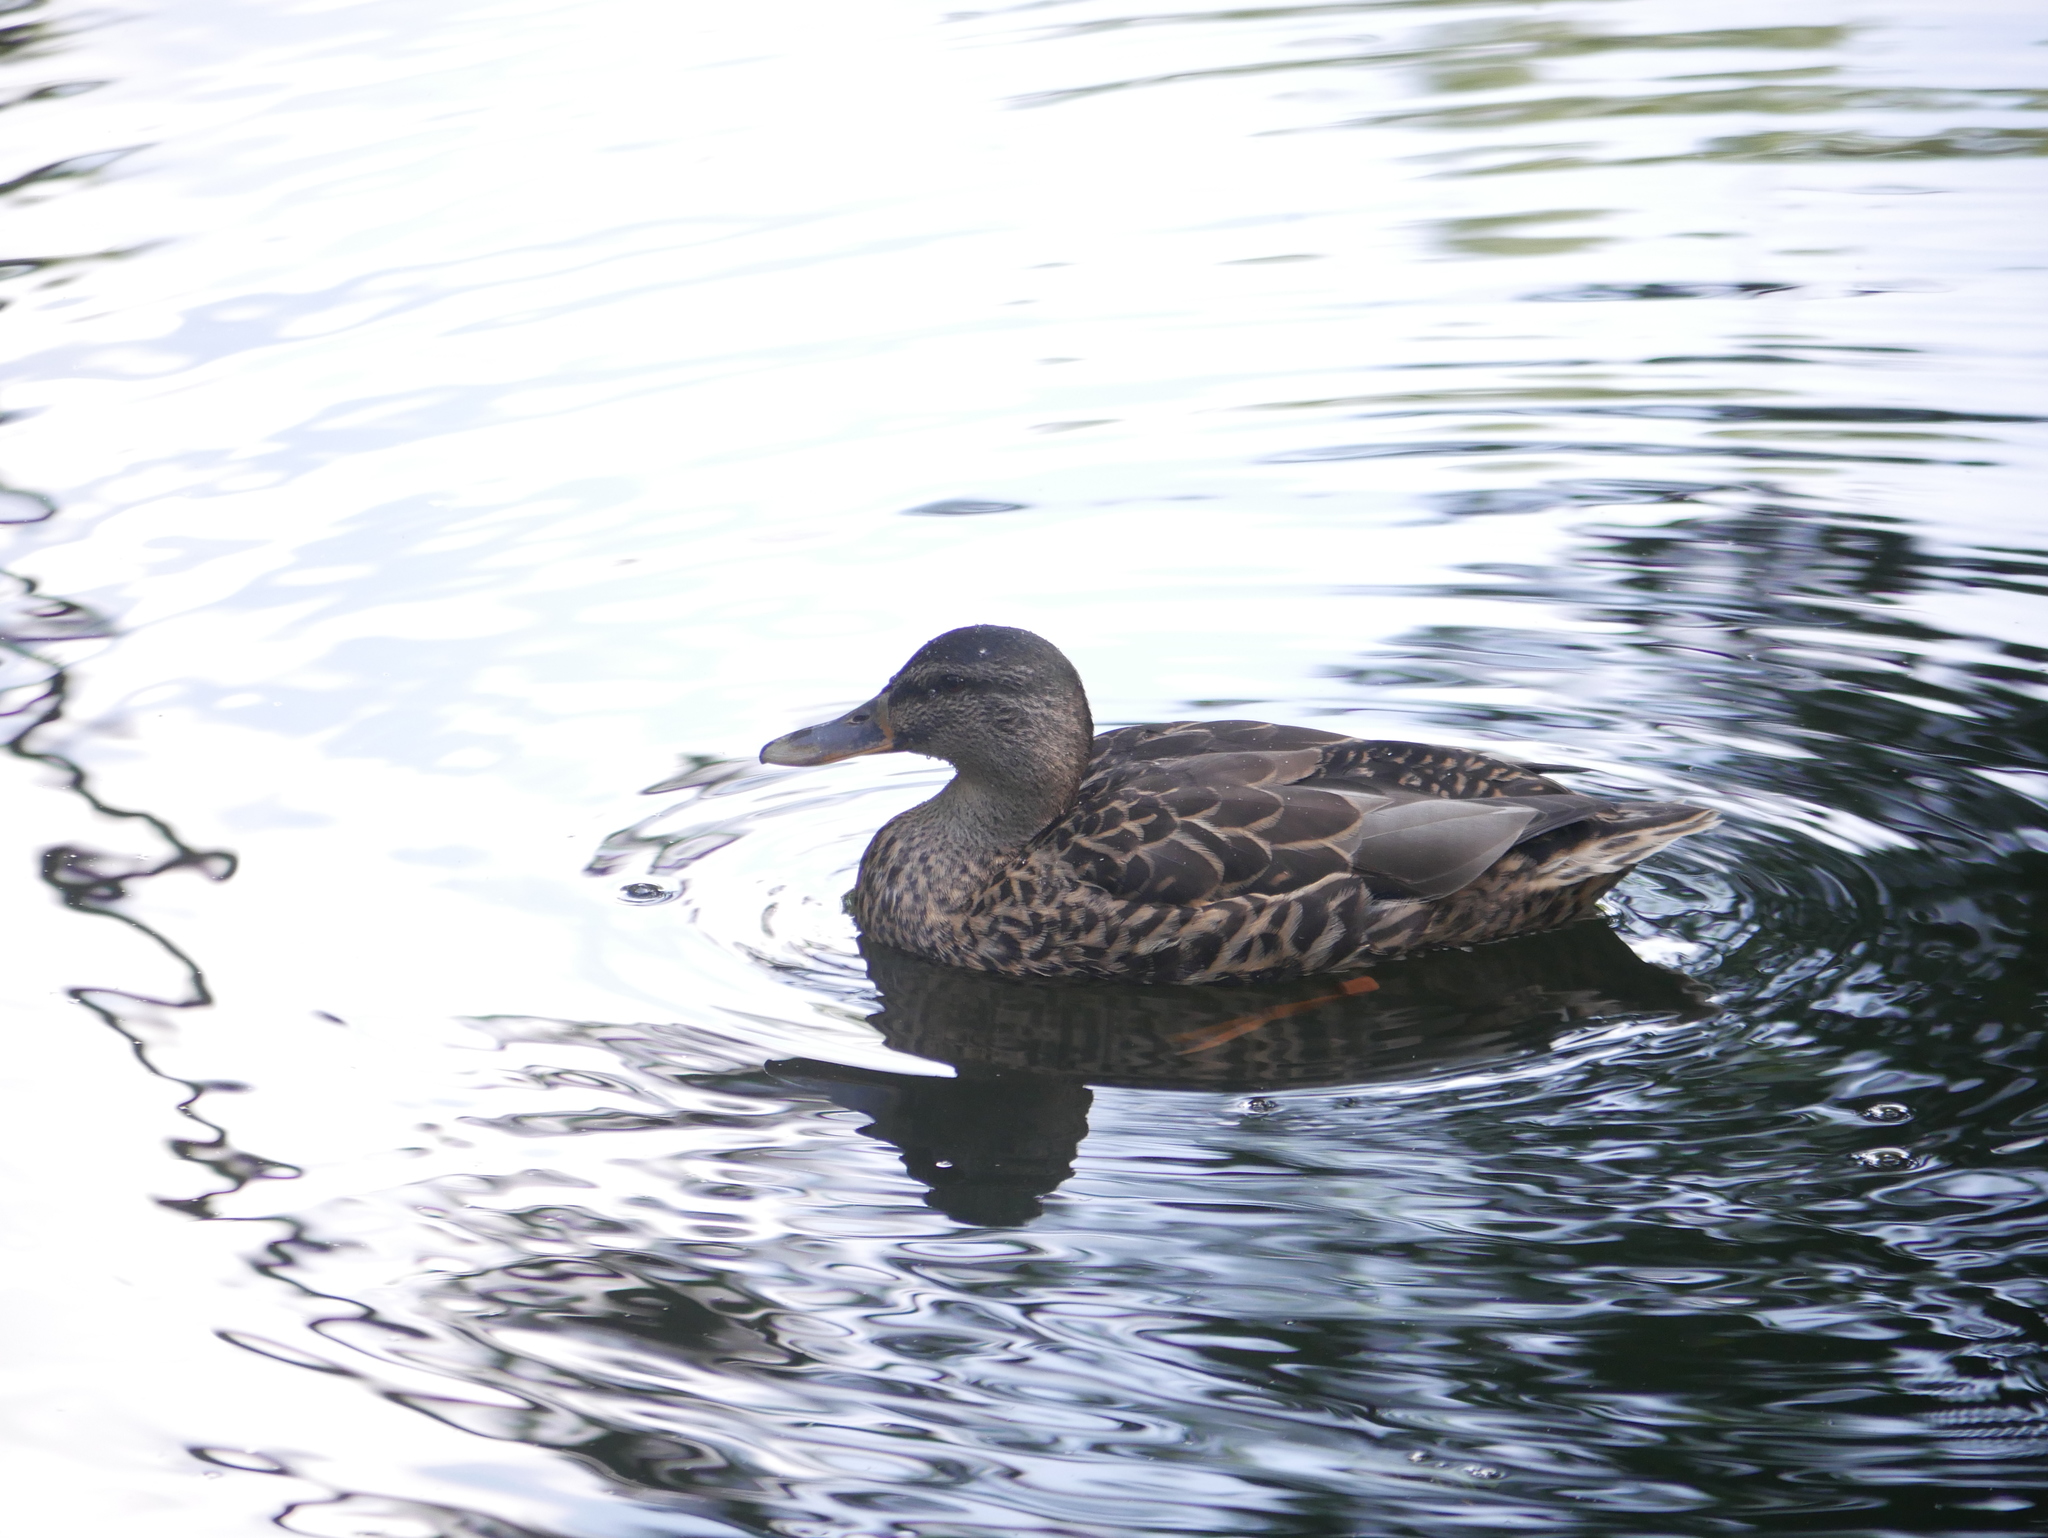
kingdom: Animalia
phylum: Chordata
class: Aves
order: Anseriformes
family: Anatidae
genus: Anas
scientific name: Anas platyrhynchos
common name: Mallard
